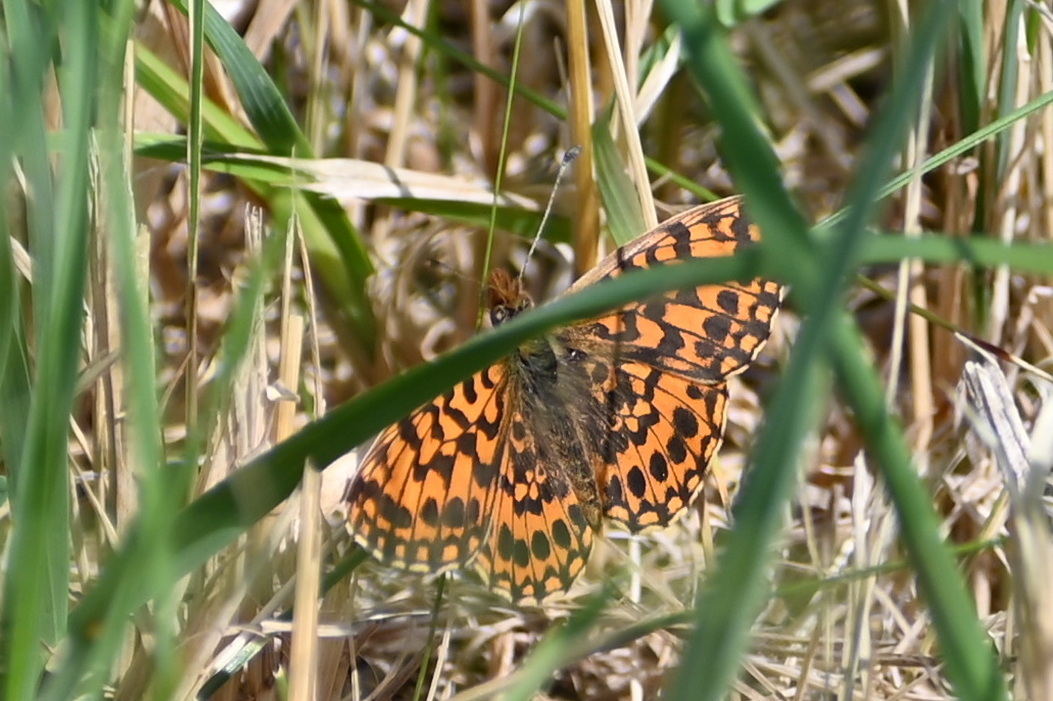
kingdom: Animalia
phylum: Arthropoda
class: Insecta
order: Lepidoptera
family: Nymphalidae
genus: Boloria
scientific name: Boloria dia
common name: Weaver's fritillary
